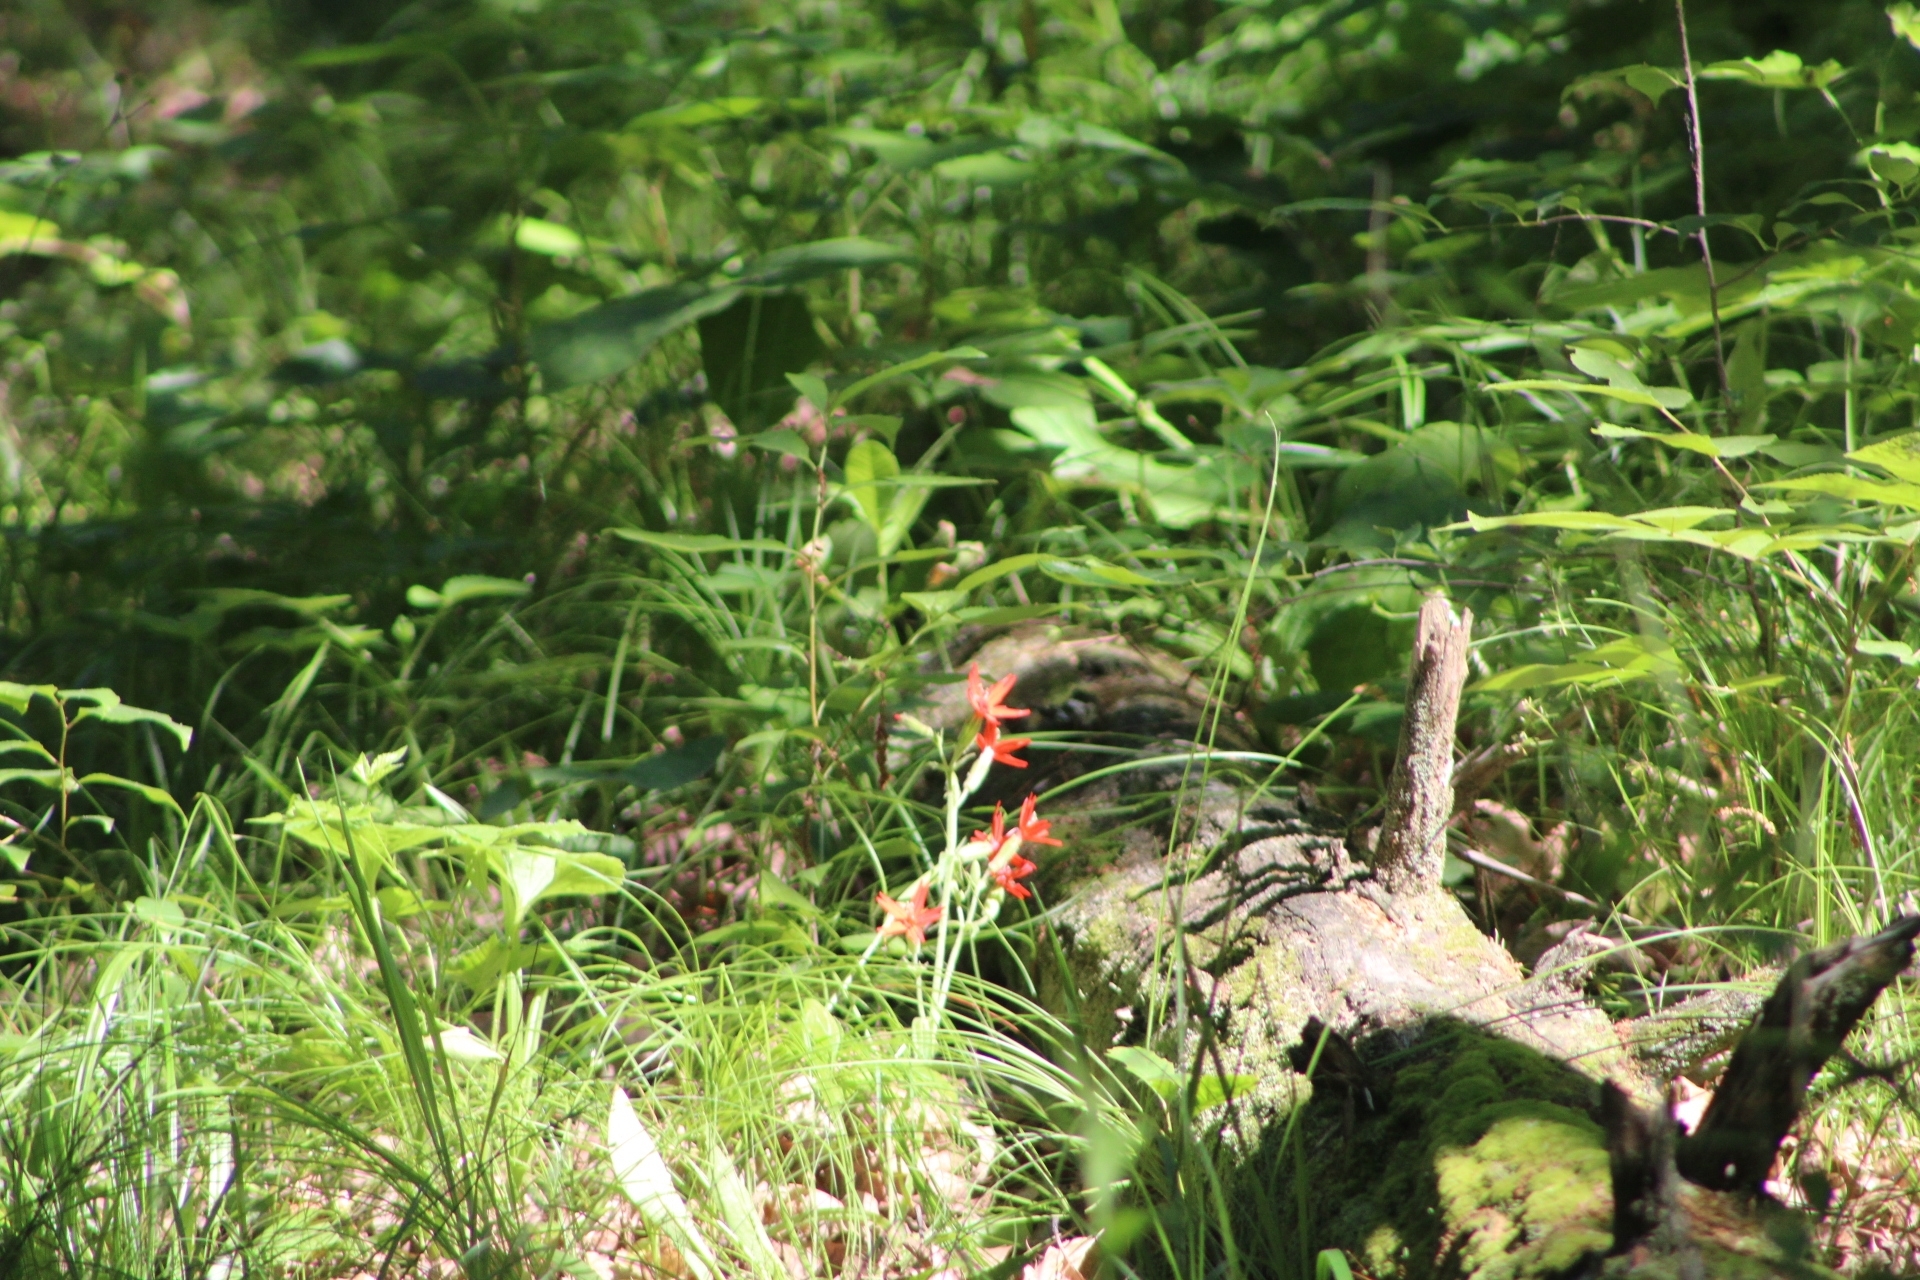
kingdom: Plantae
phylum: Tracheophyta
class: Magnoliopsida
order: Caryophyllales
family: Caryophyllaceae
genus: Silene
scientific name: Silene virginica
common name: Fire-pink
